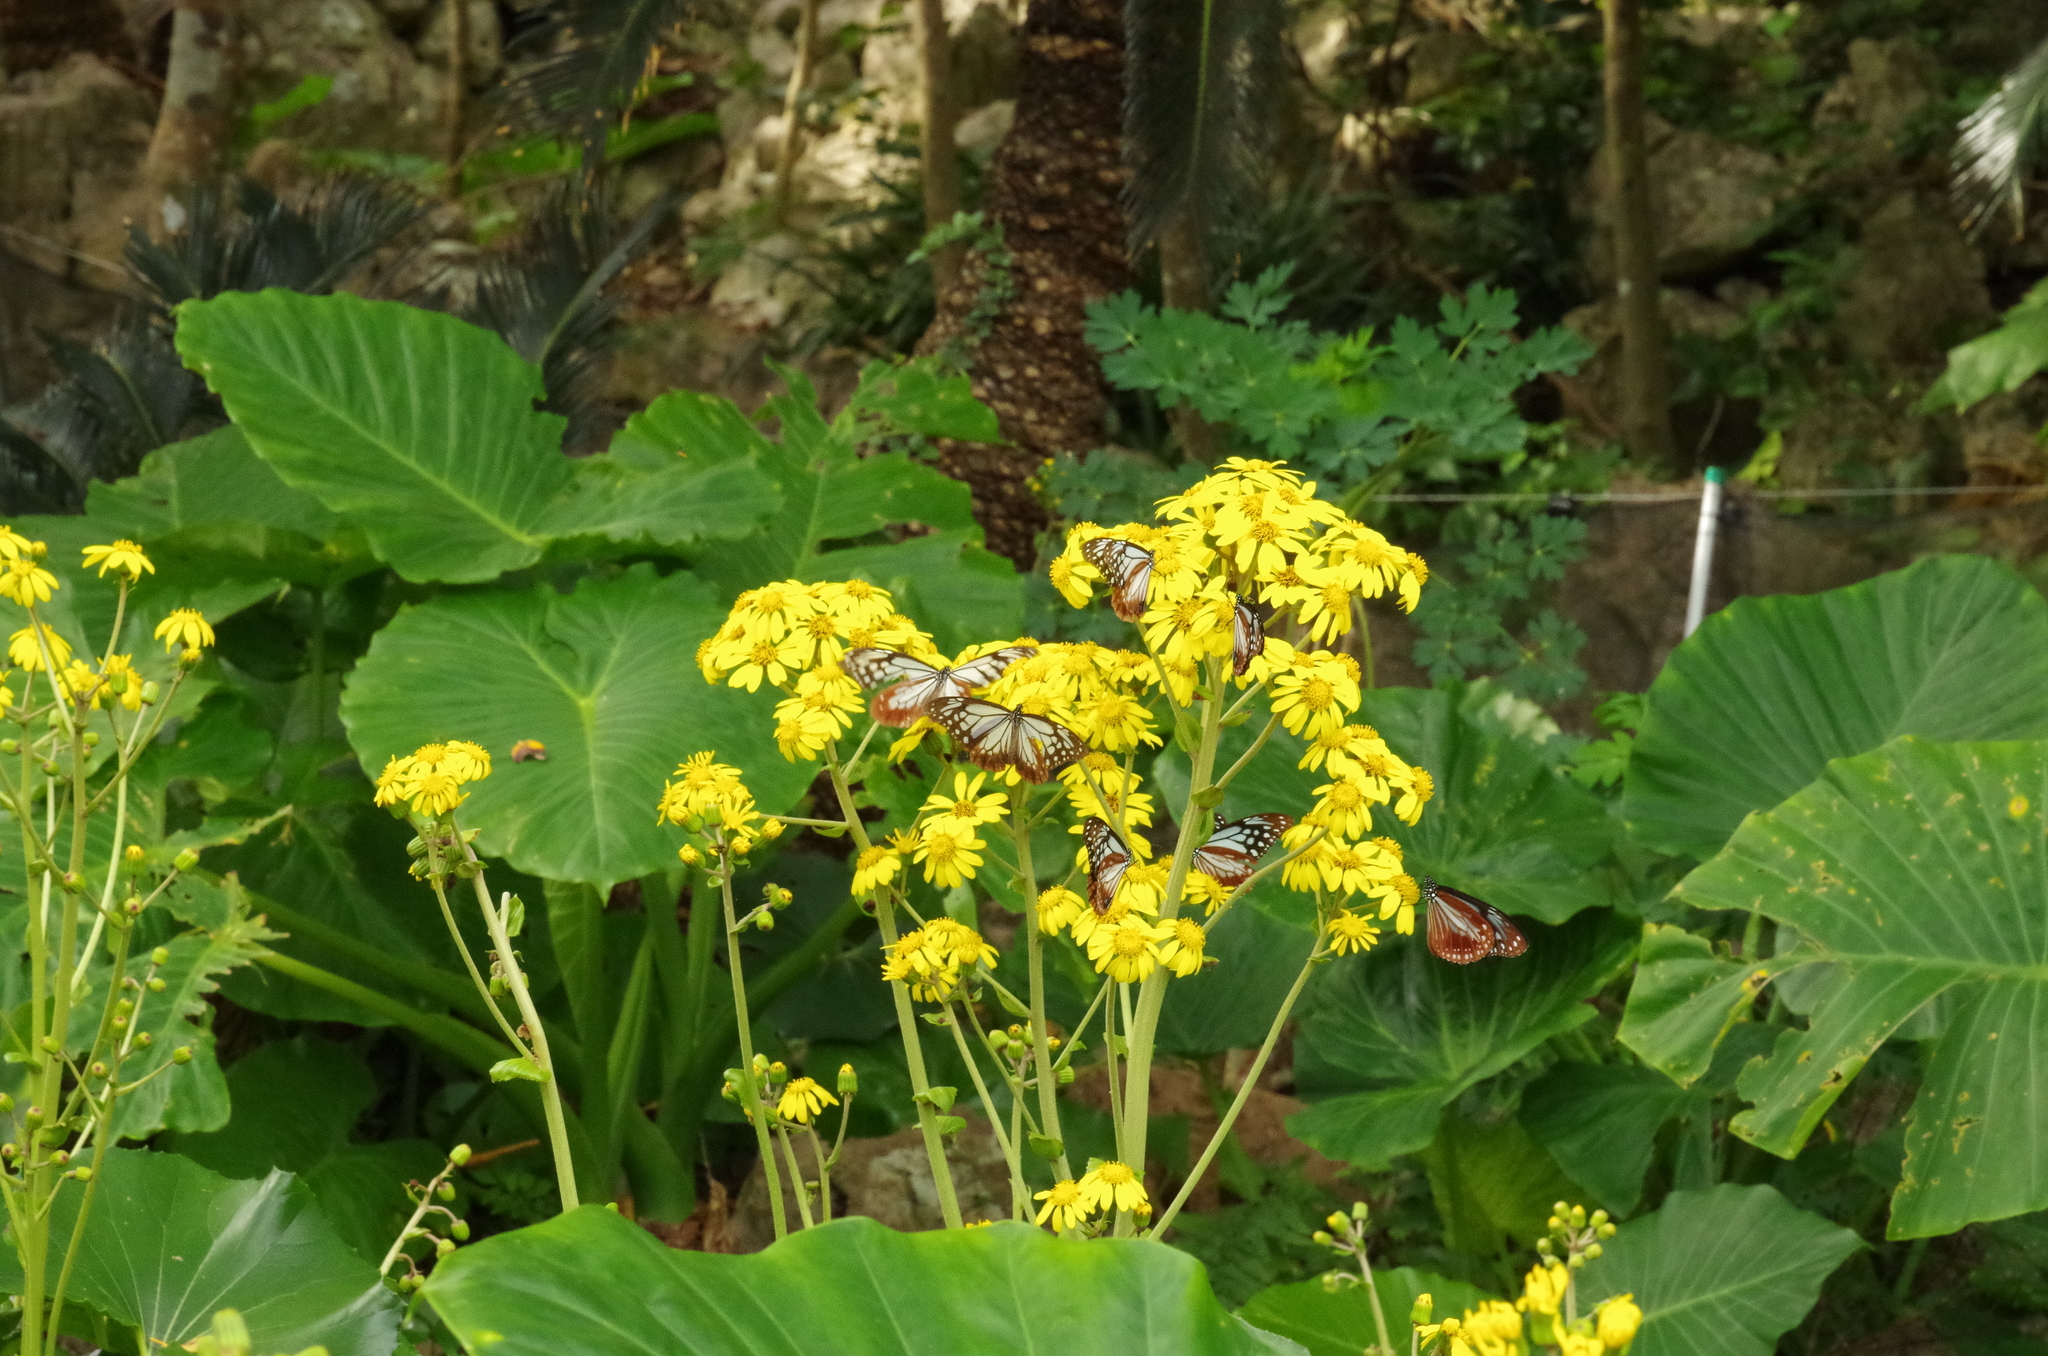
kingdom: Animalia
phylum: Arthropoda
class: Insecta
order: Lepidoptera
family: Nymphalidae
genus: Parantica
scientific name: Parantica sita
